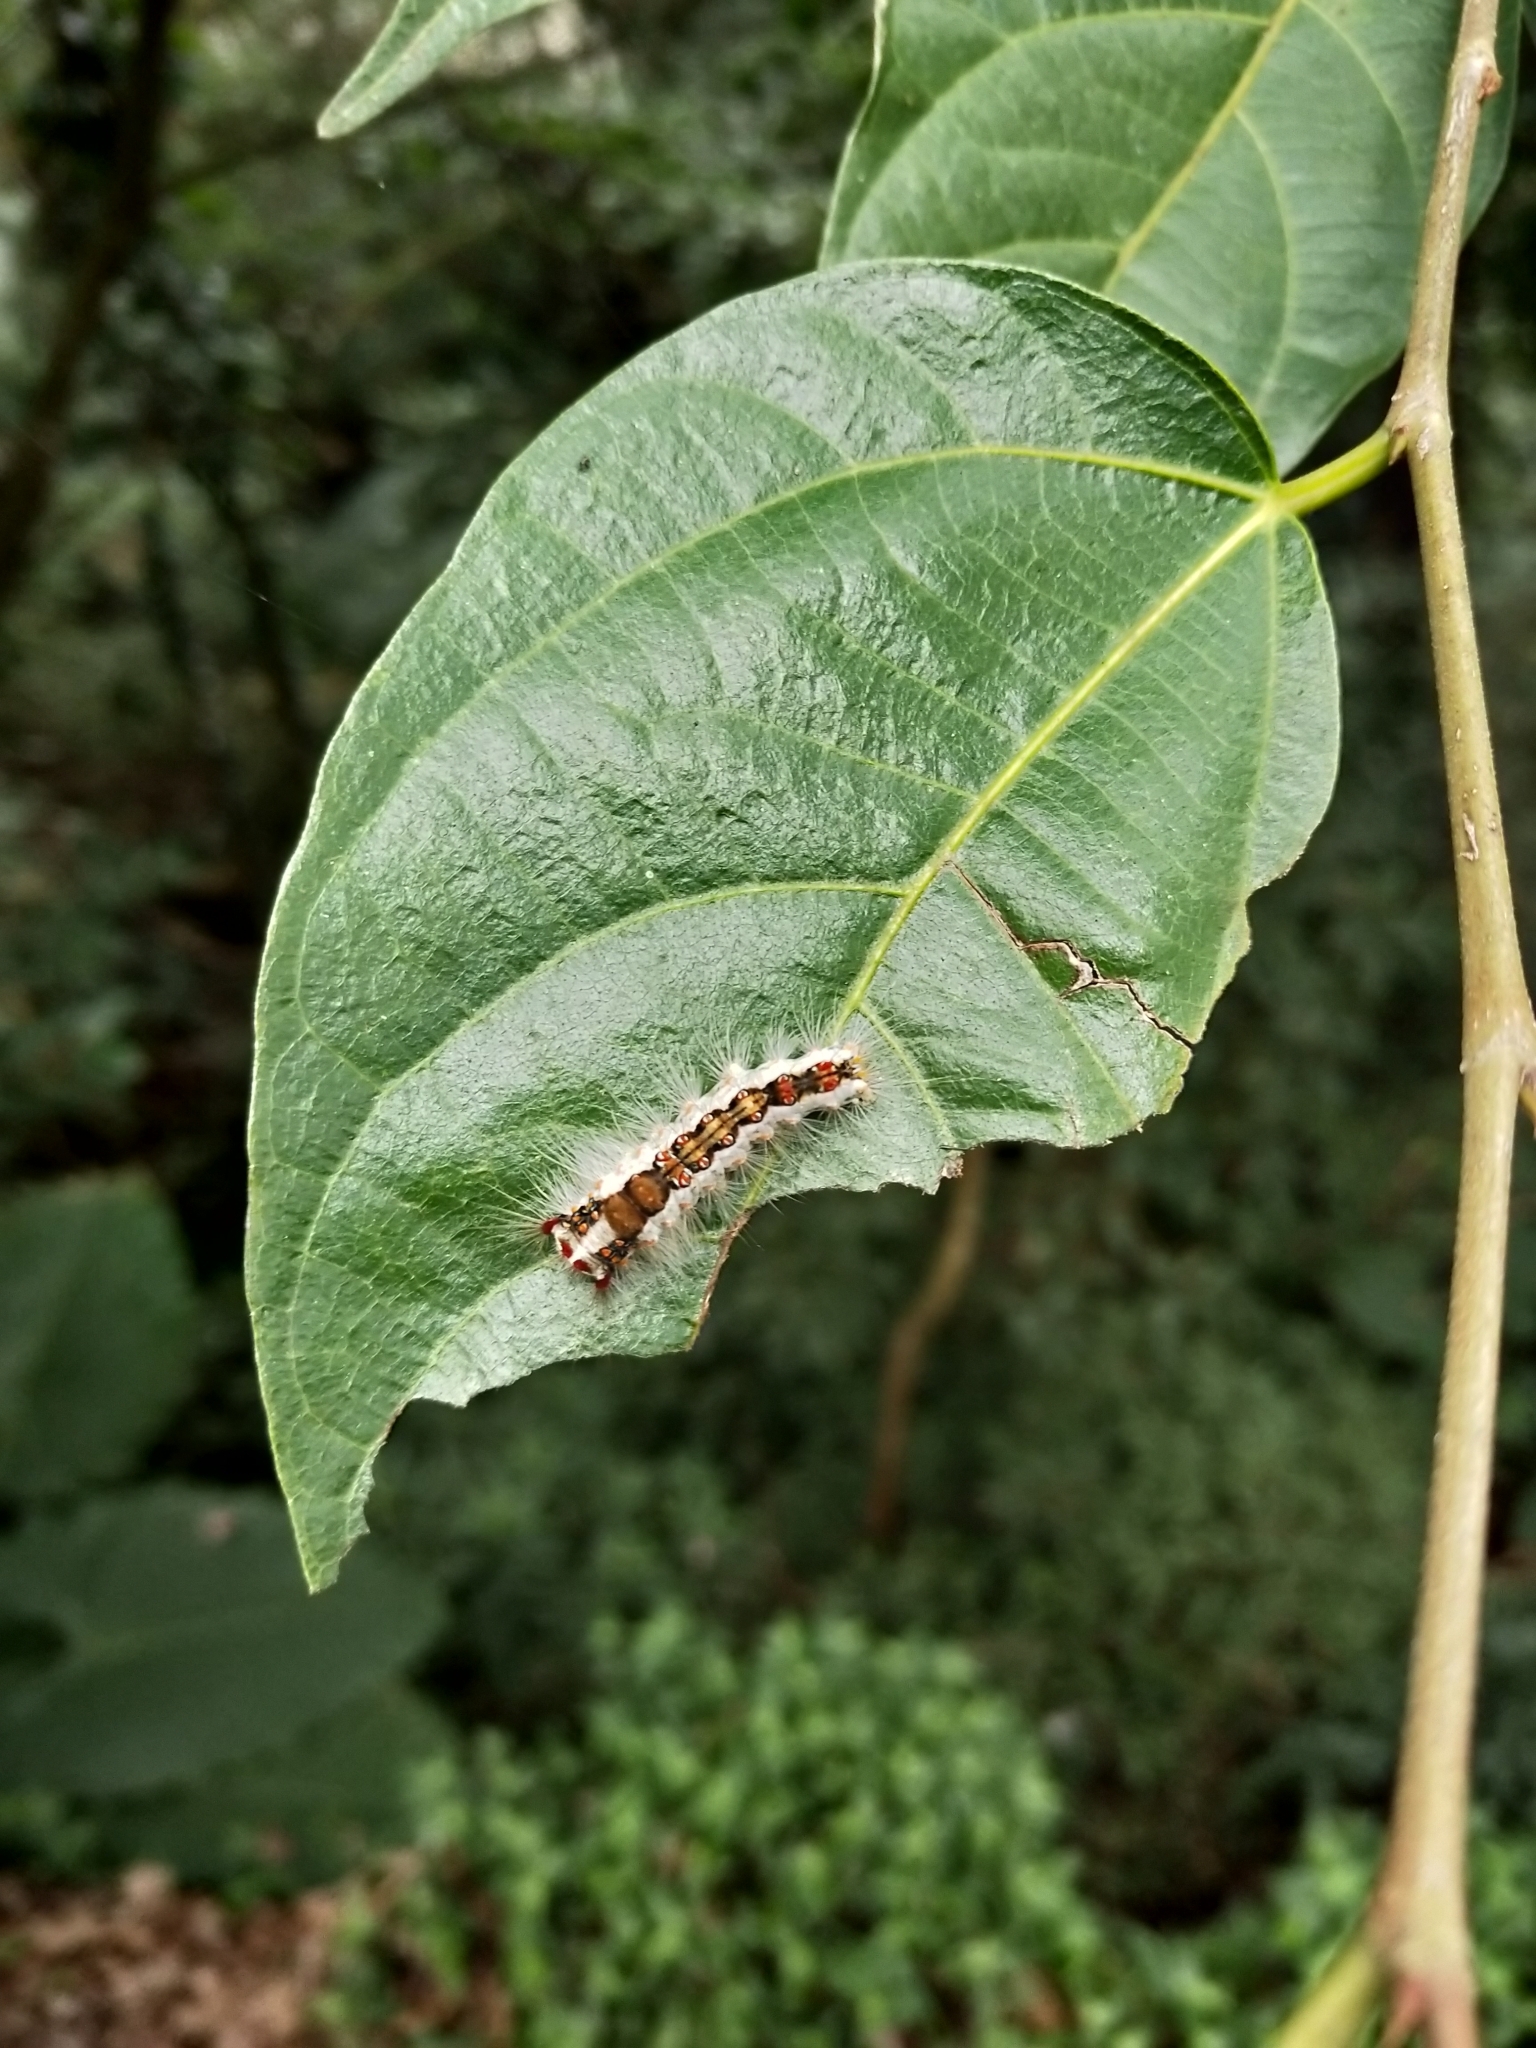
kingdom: Animalia
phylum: Arthropoda
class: Insecta
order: Lepidoptera
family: Erebidae
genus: Perina
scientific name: Perina nuda
